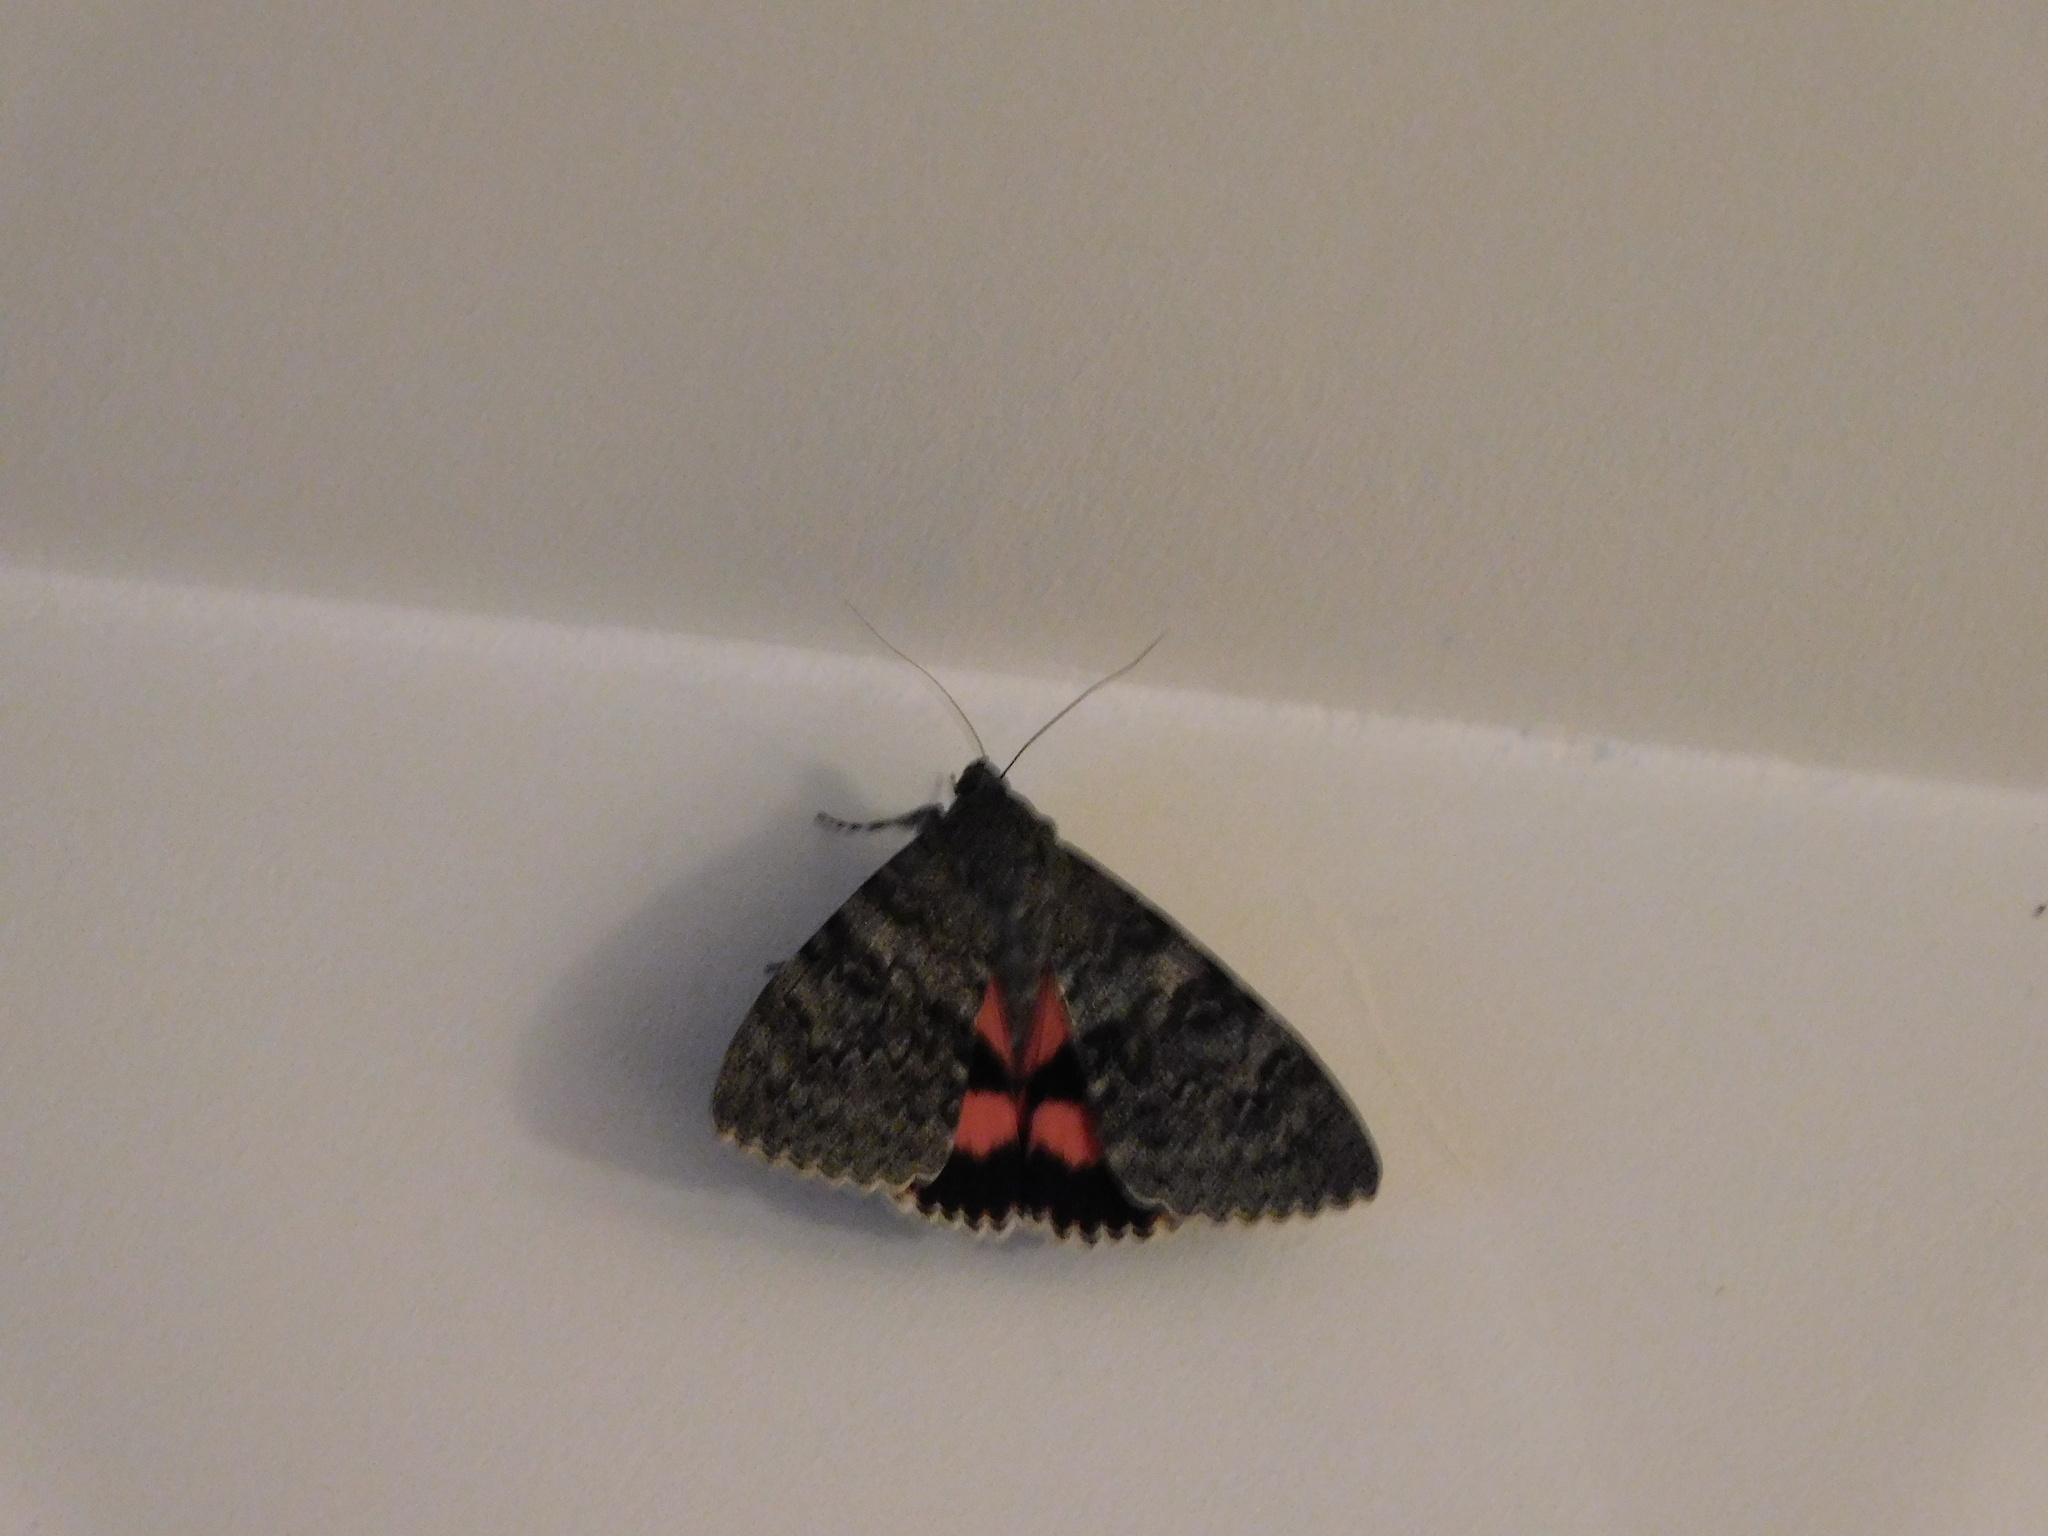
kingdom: Animalia
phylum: Arthropoda
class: Insecta
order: Lepidoptera
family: Erebidae
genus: Catocala
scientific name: Catocala elocata
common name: French red underwing
